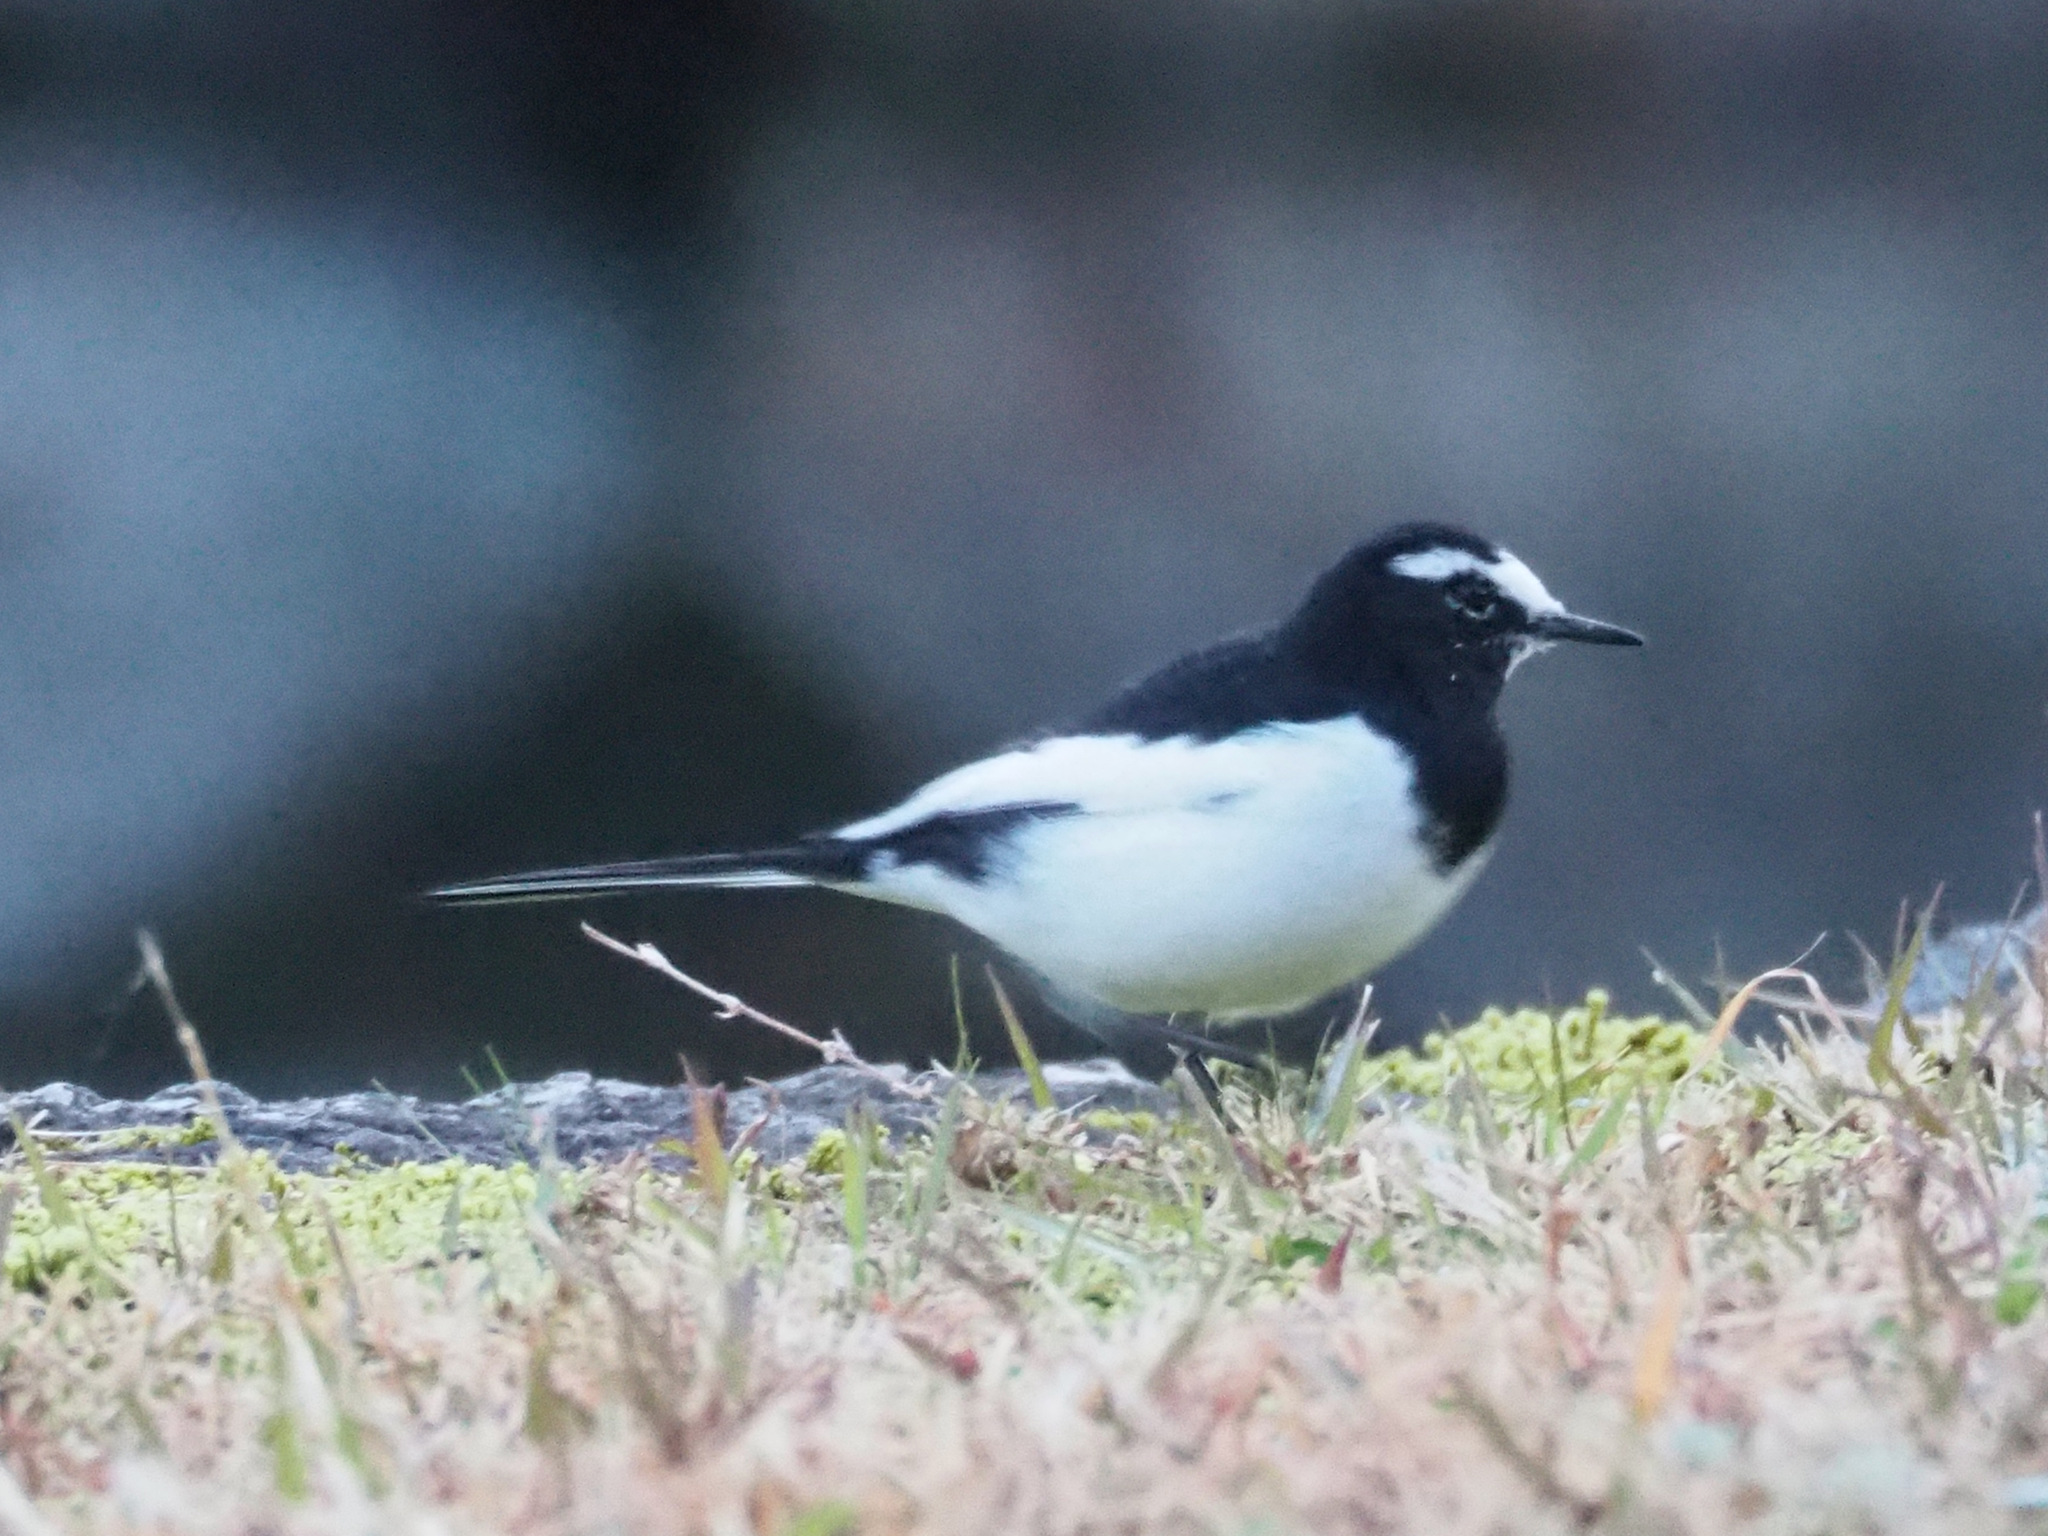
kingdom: Animalia
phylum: Chordata
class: Aves
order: Passeriformes
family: Motacillidae
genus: Motacilla
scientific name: Motacilla grandis
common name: Japanese wagtail
